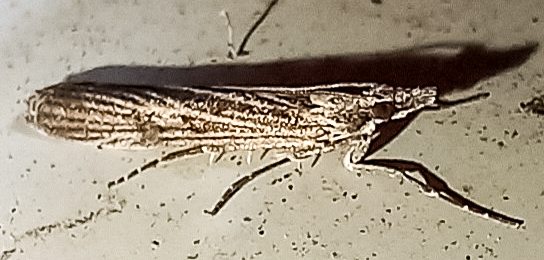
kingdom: Animalia
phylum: Arthropoda
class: Insecta
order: Lepidoptera
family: Crambidae
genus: Eudonia
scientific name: Eudonia atmogramma
